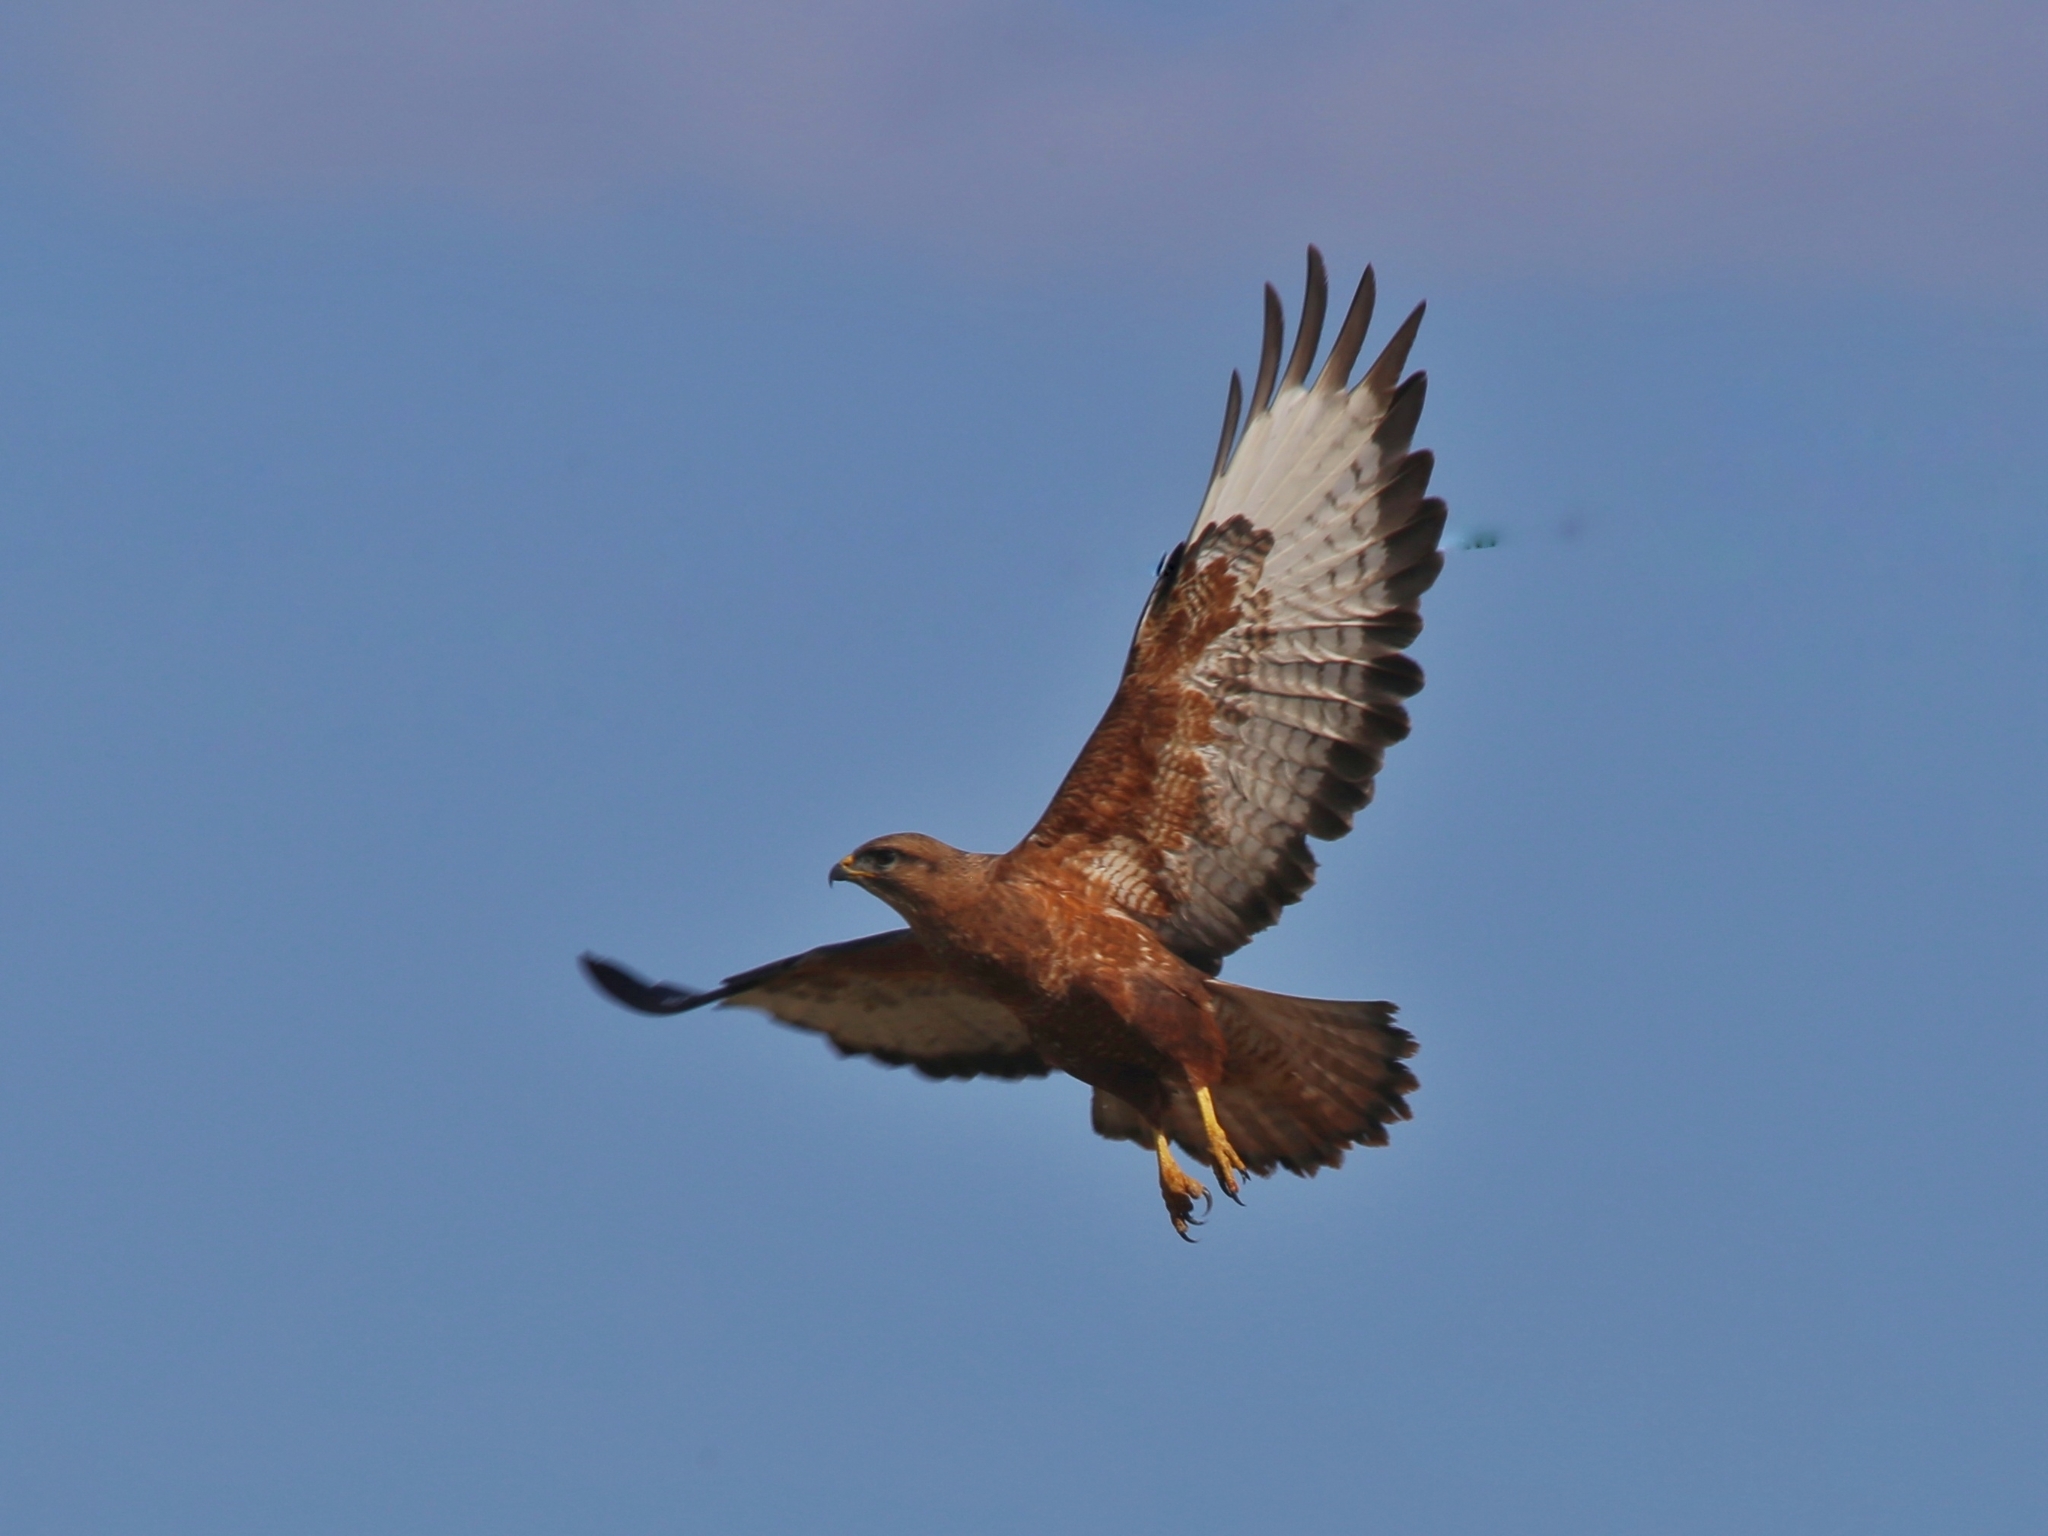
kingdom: Animalia
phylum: Chordata
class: Aves
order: Accipitriformes
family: Accipitridae
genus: Buteo
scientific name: Buteo buteo
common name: Common buzzard
